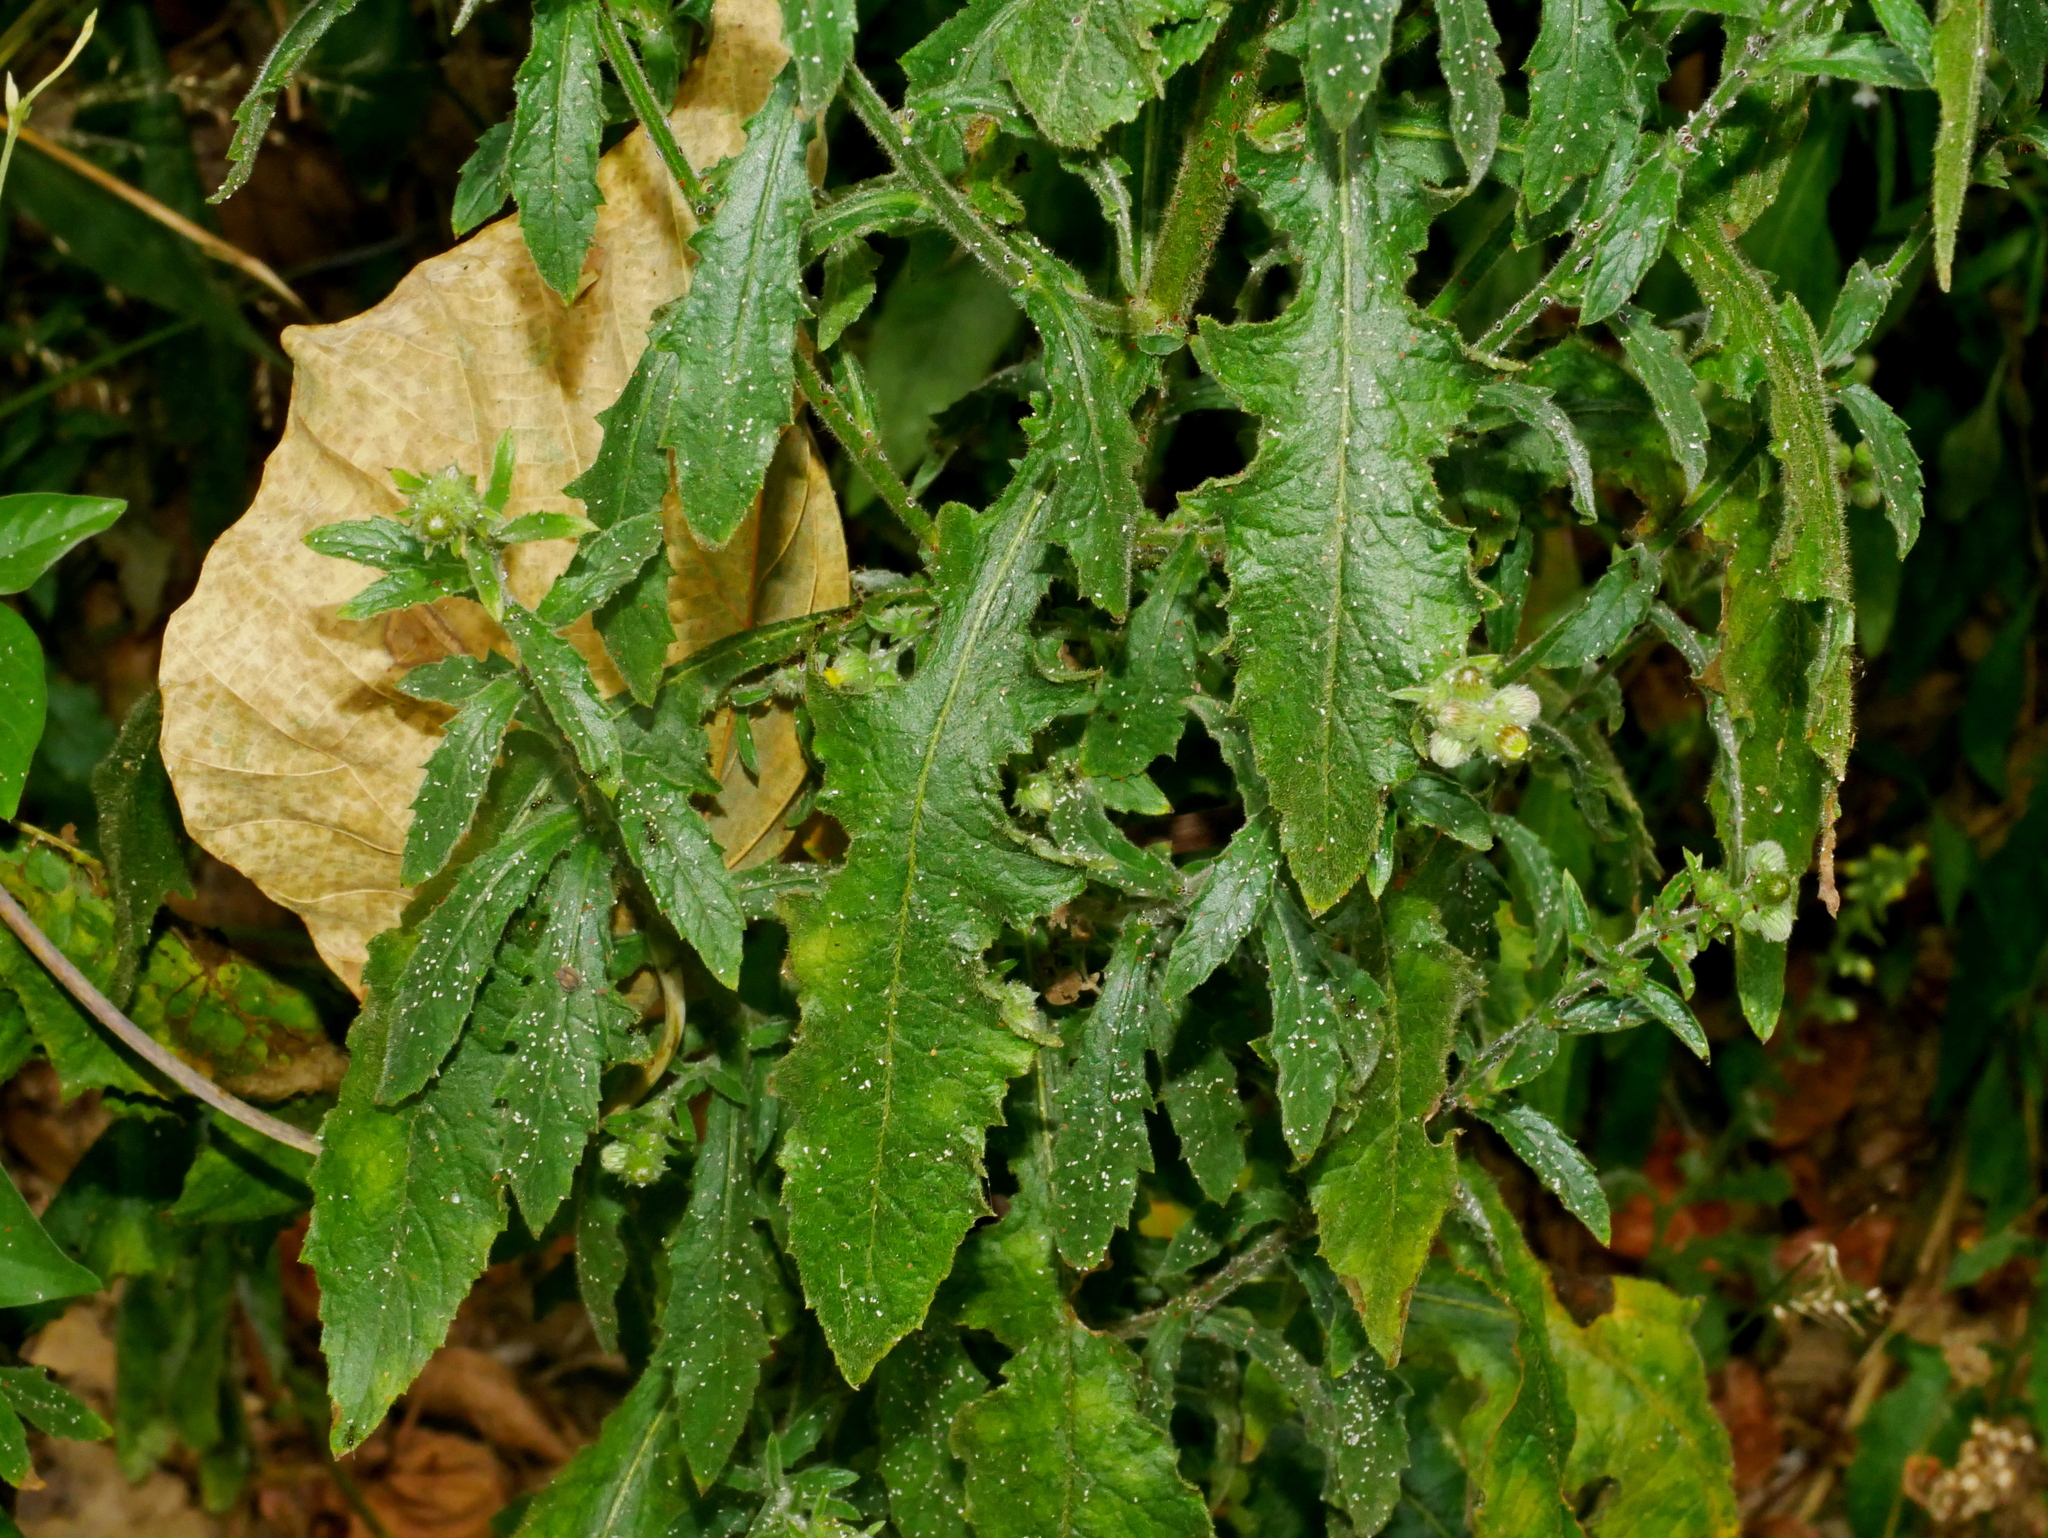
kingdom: Plantae
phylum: Tracheophyta
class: Magnoliopsida
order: Asterales
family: Asteraceae
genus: Blumea
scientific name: Blumea sinuata
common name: Cutleaf false oxtongue
